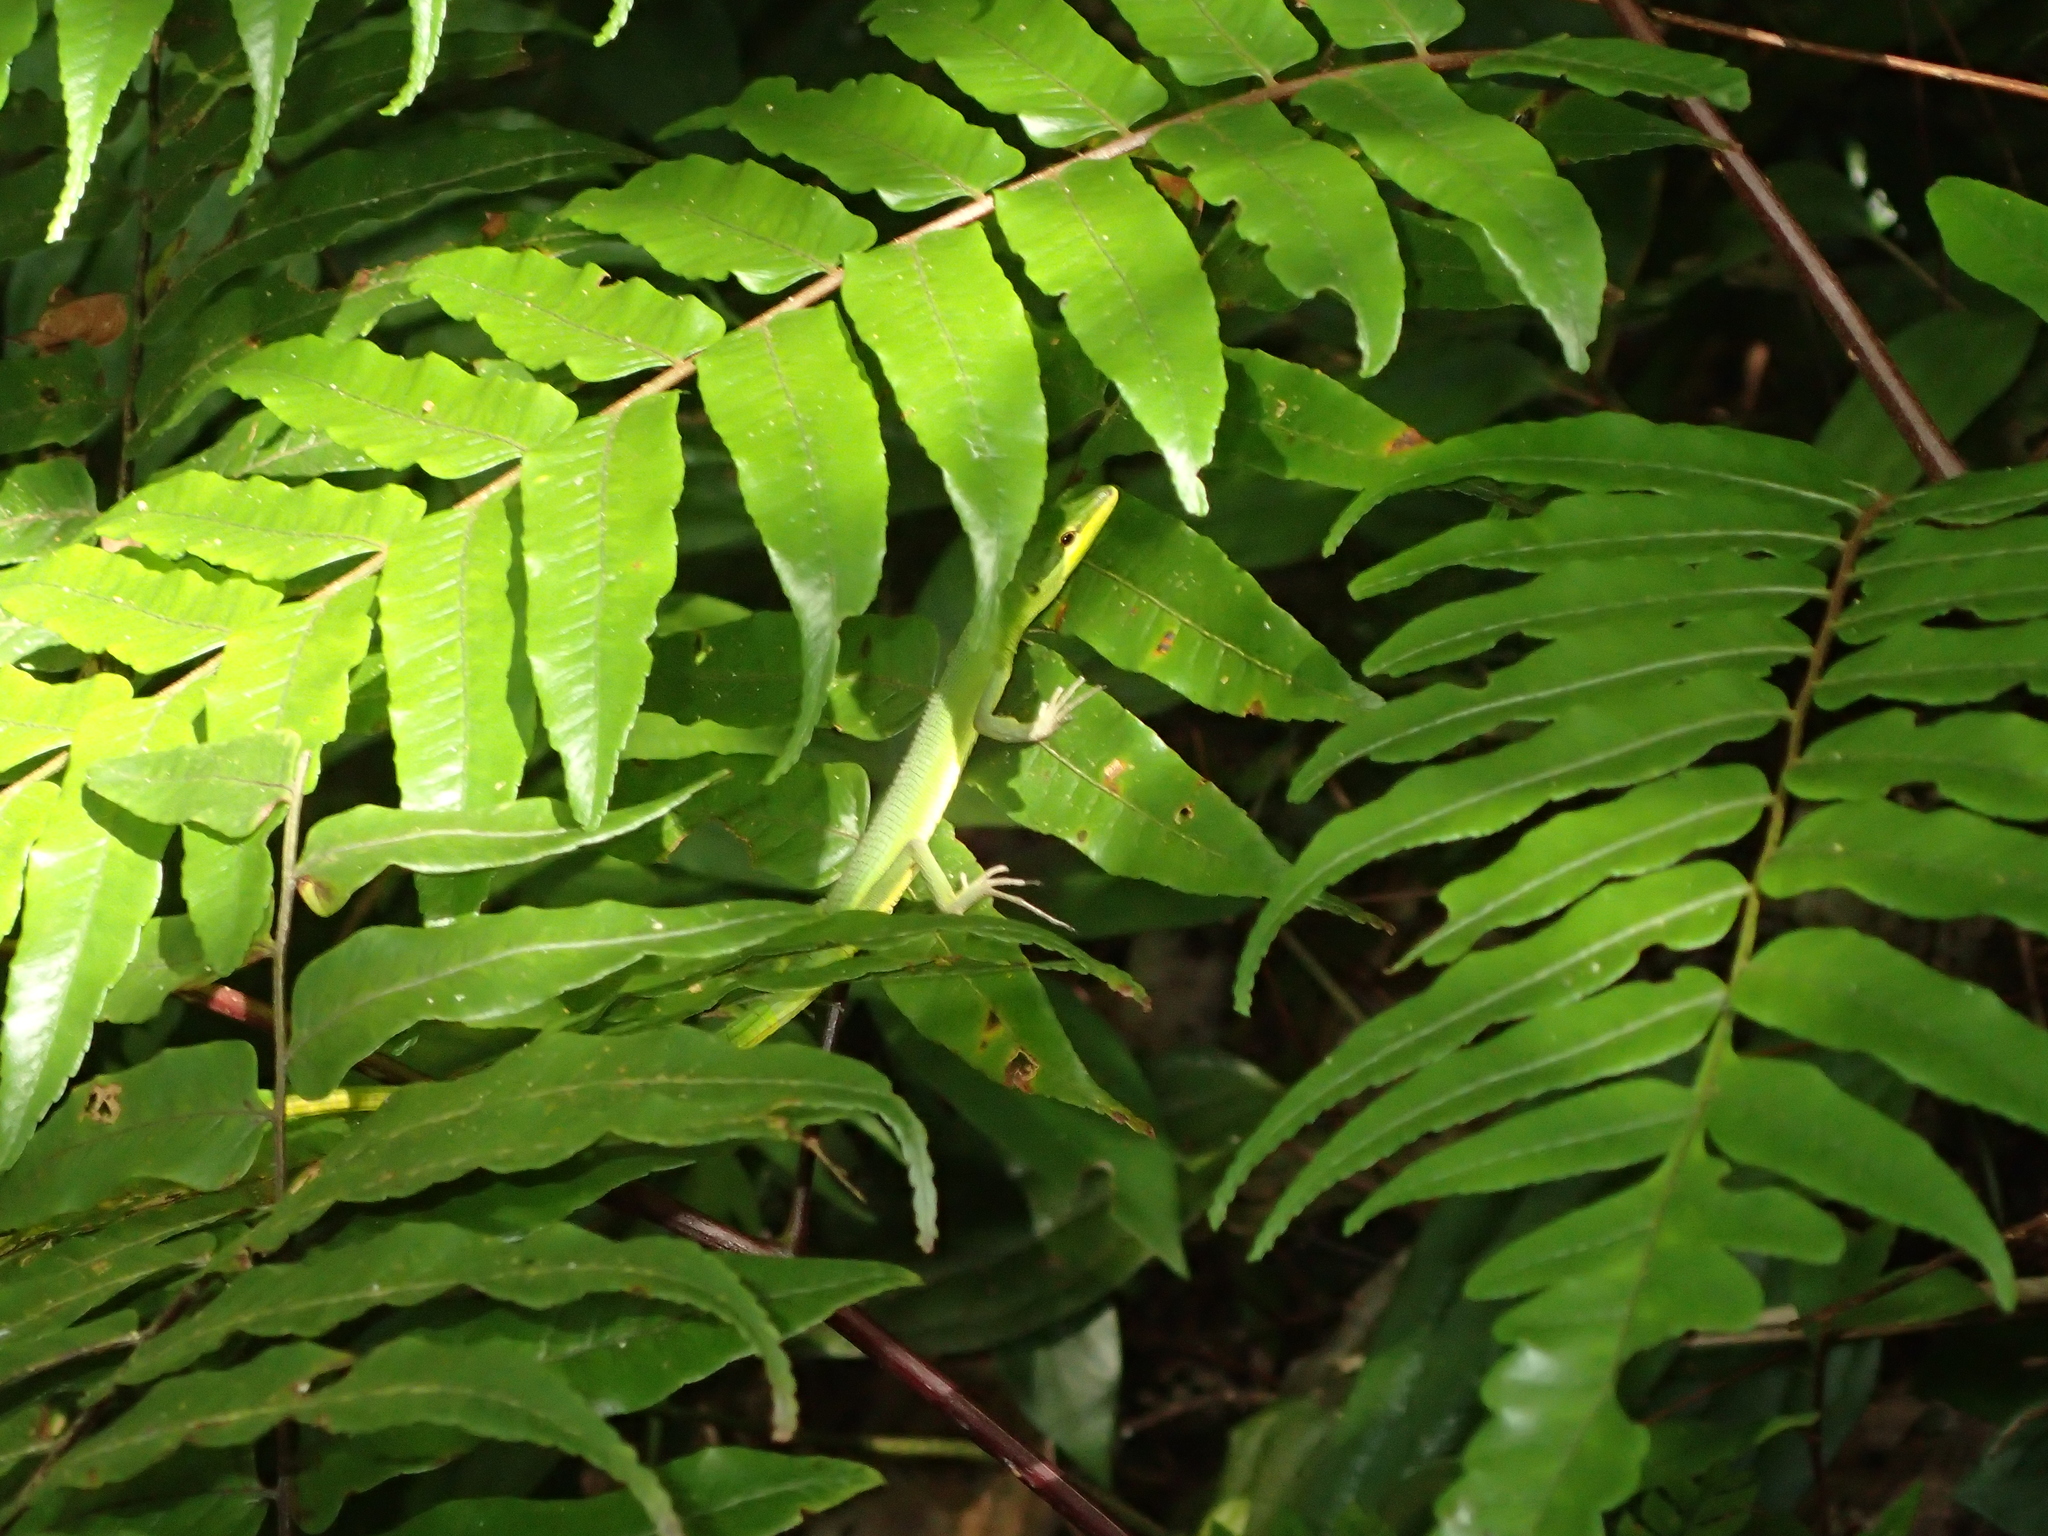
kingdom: Animalia
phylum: Chordata
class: Squamata
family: Lacertidae
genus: Takydromus
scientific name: Takydromus dorsalis
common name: Sakishima grass lizard
